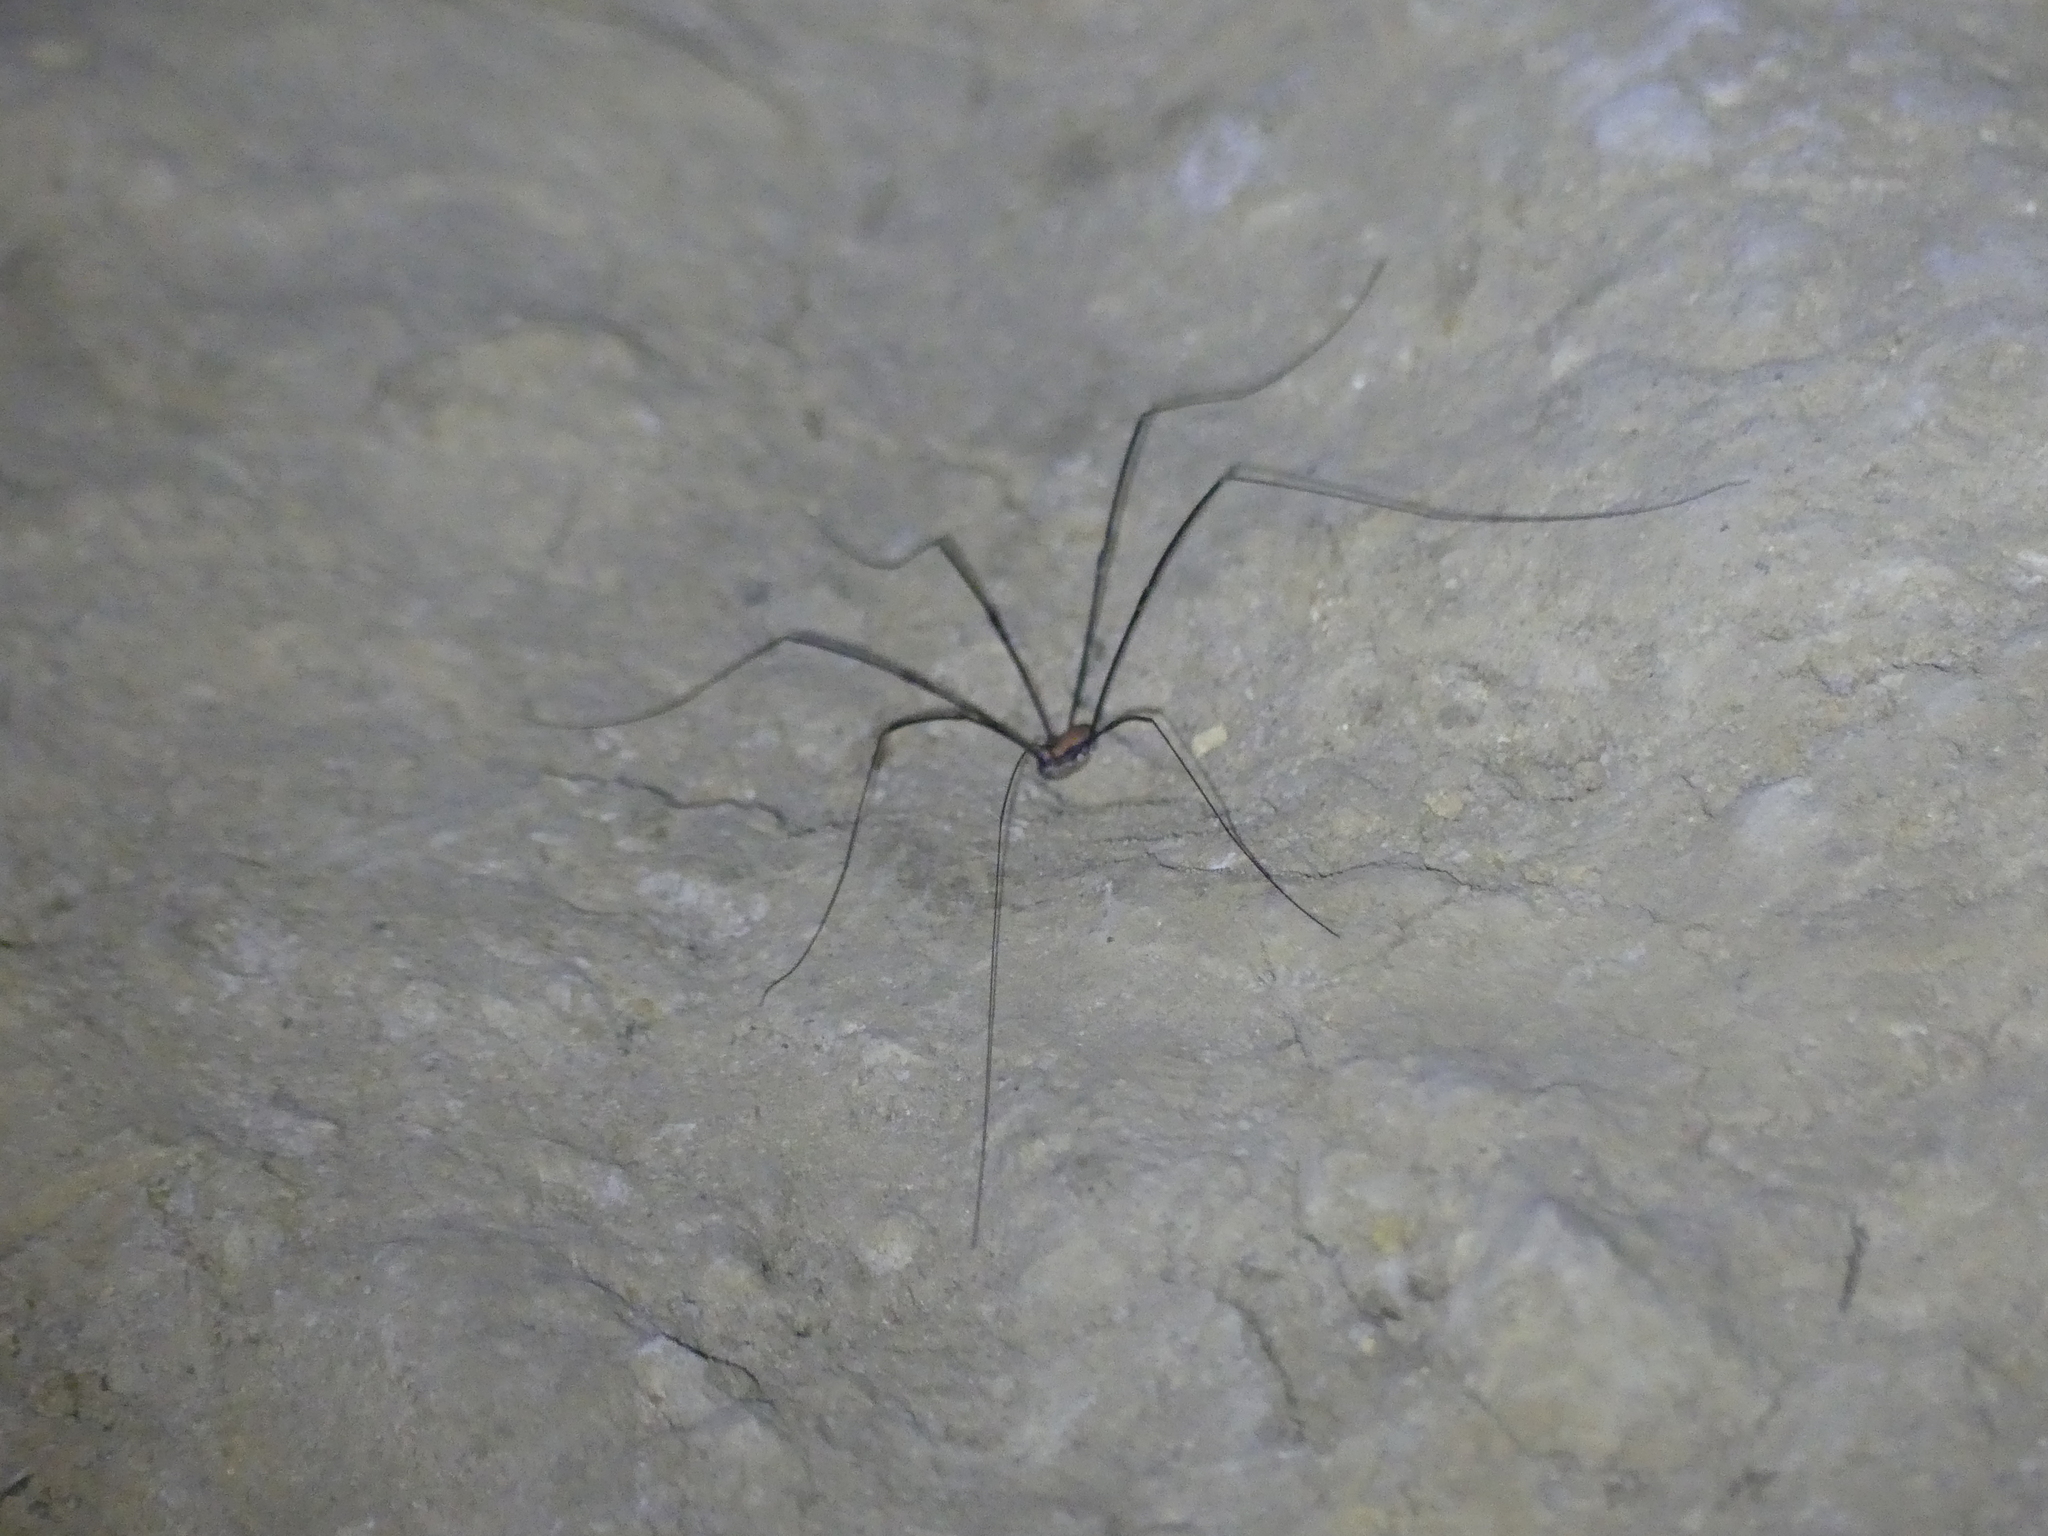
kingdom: Animalia
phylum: Arthropoda
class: Arachnida
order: Opiliones
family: Sclerosomatidae
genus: Leiobunum
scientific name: Leiobunum limbatum
